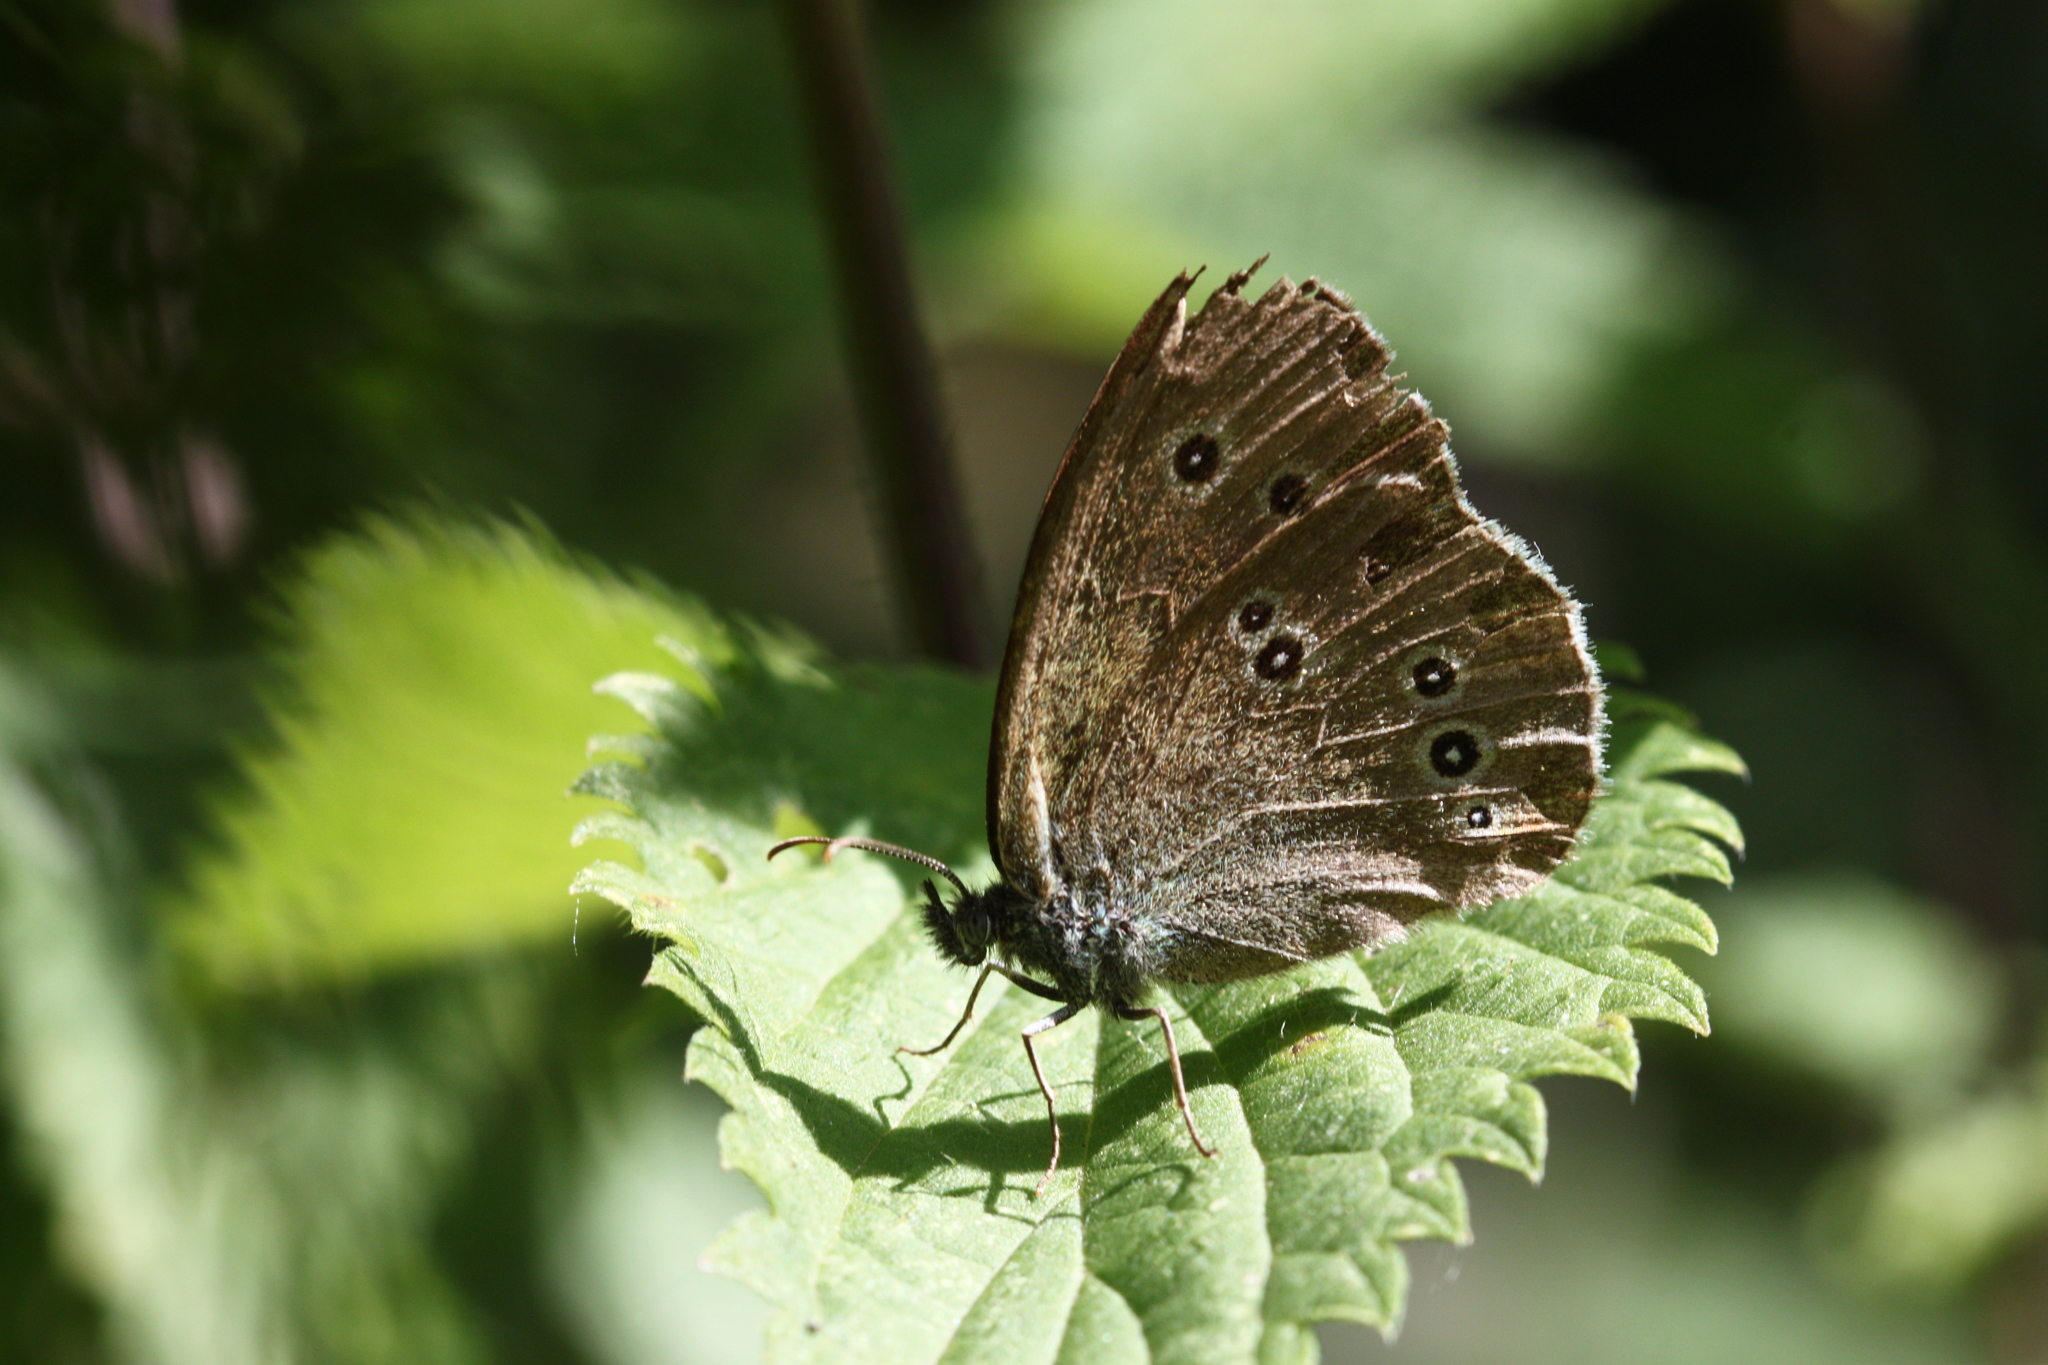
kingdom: Animalia
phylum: Arthropoda
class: Insecta
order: Lepidoptera
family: Nymphalidae
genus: Aphantopus
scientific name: Aphantopus hyperantus
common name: Ringlet
